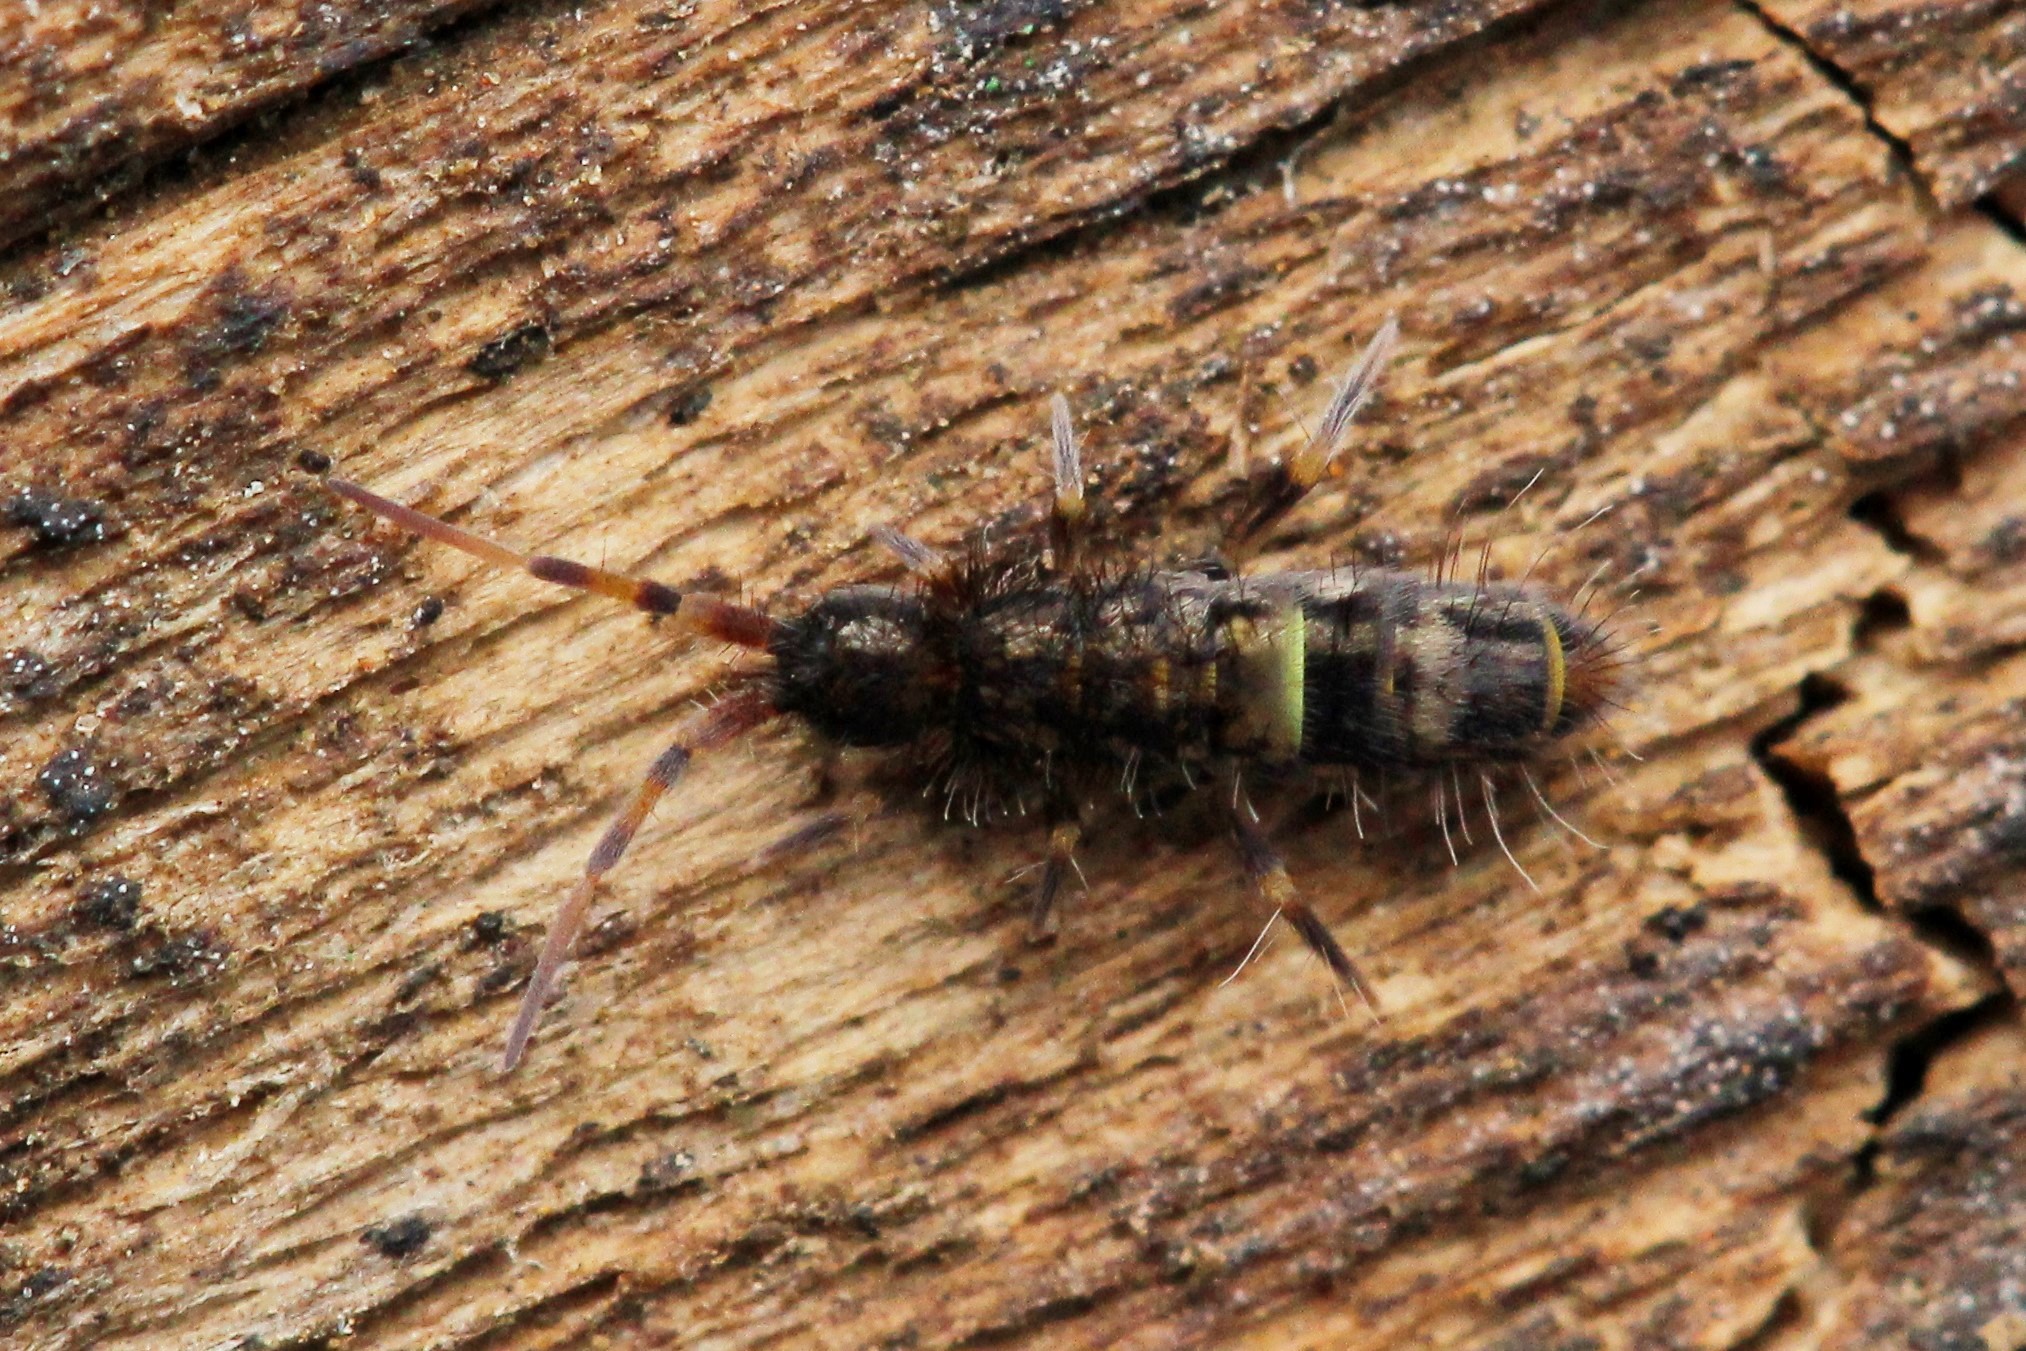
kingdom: Animalia
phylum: Arthropoda
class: Collembola
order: Entomobryomorpha
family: Orchesellidae
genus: Orchesella
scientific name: Orchesella cincta
